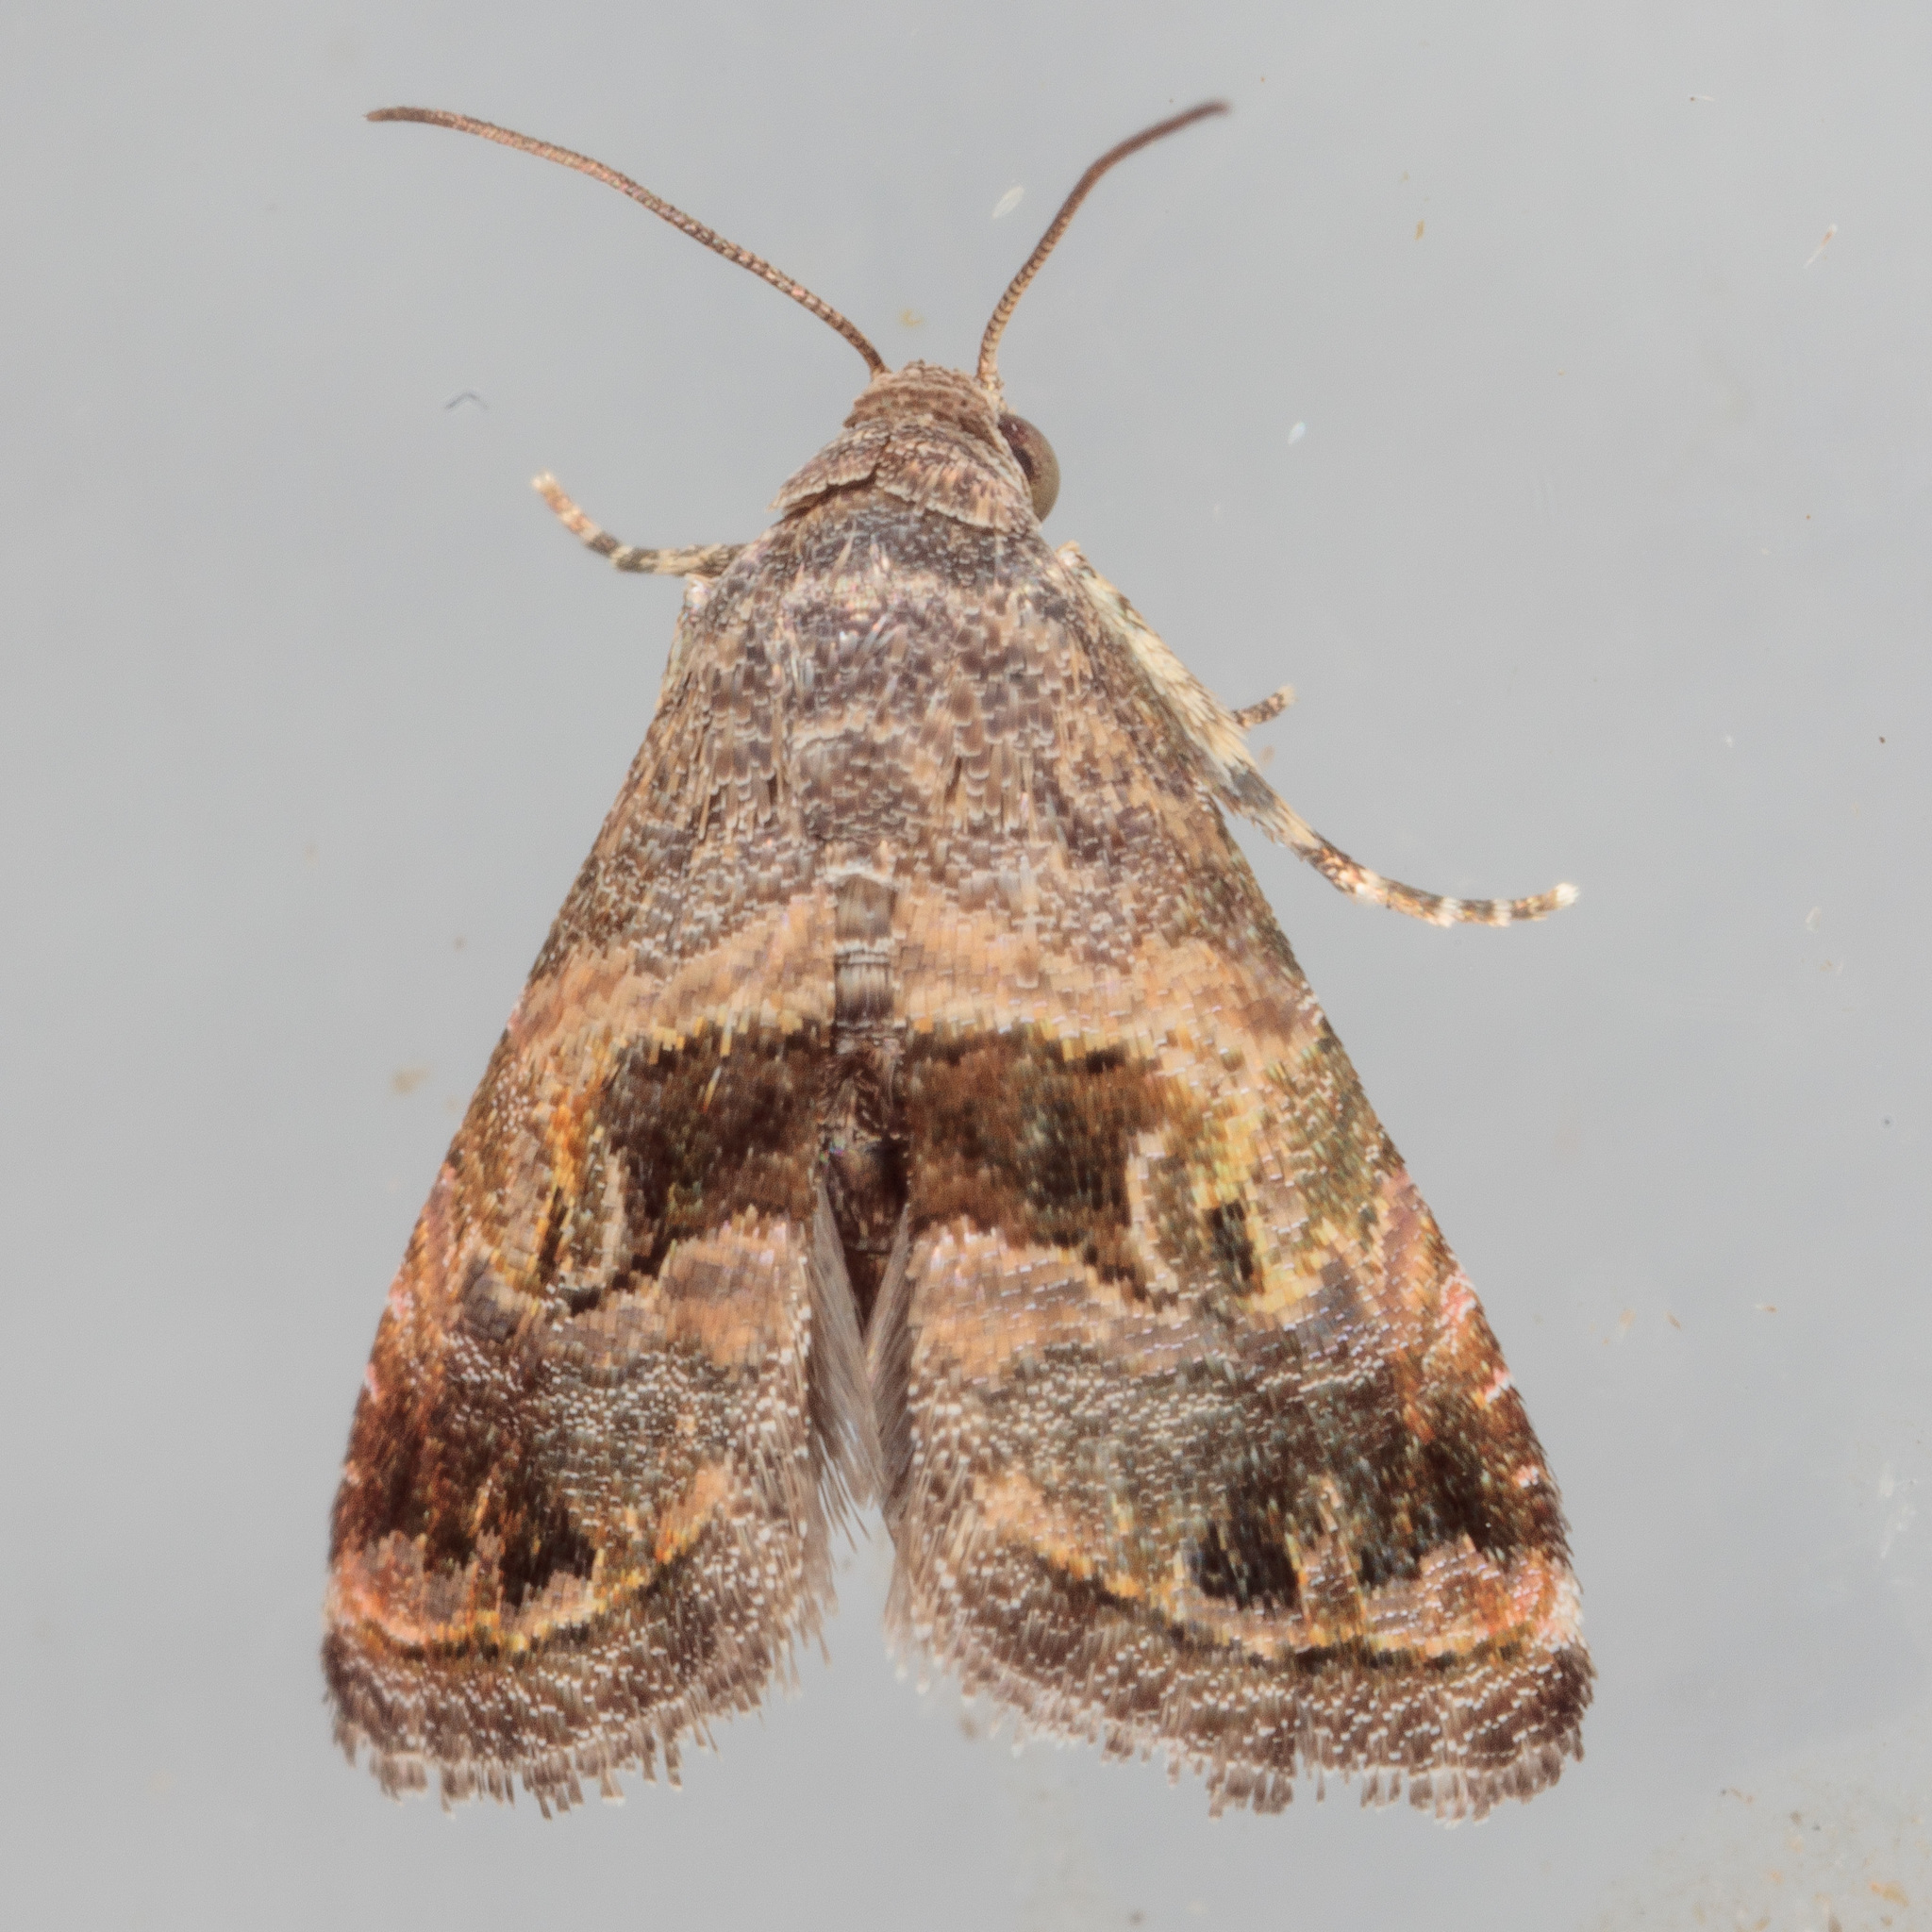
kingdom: Animalia
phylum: Arthropoda
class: Insecta
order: Lepidoptera
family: Noctuidae
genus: Tripudia
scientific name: Tripudia quadrifera
